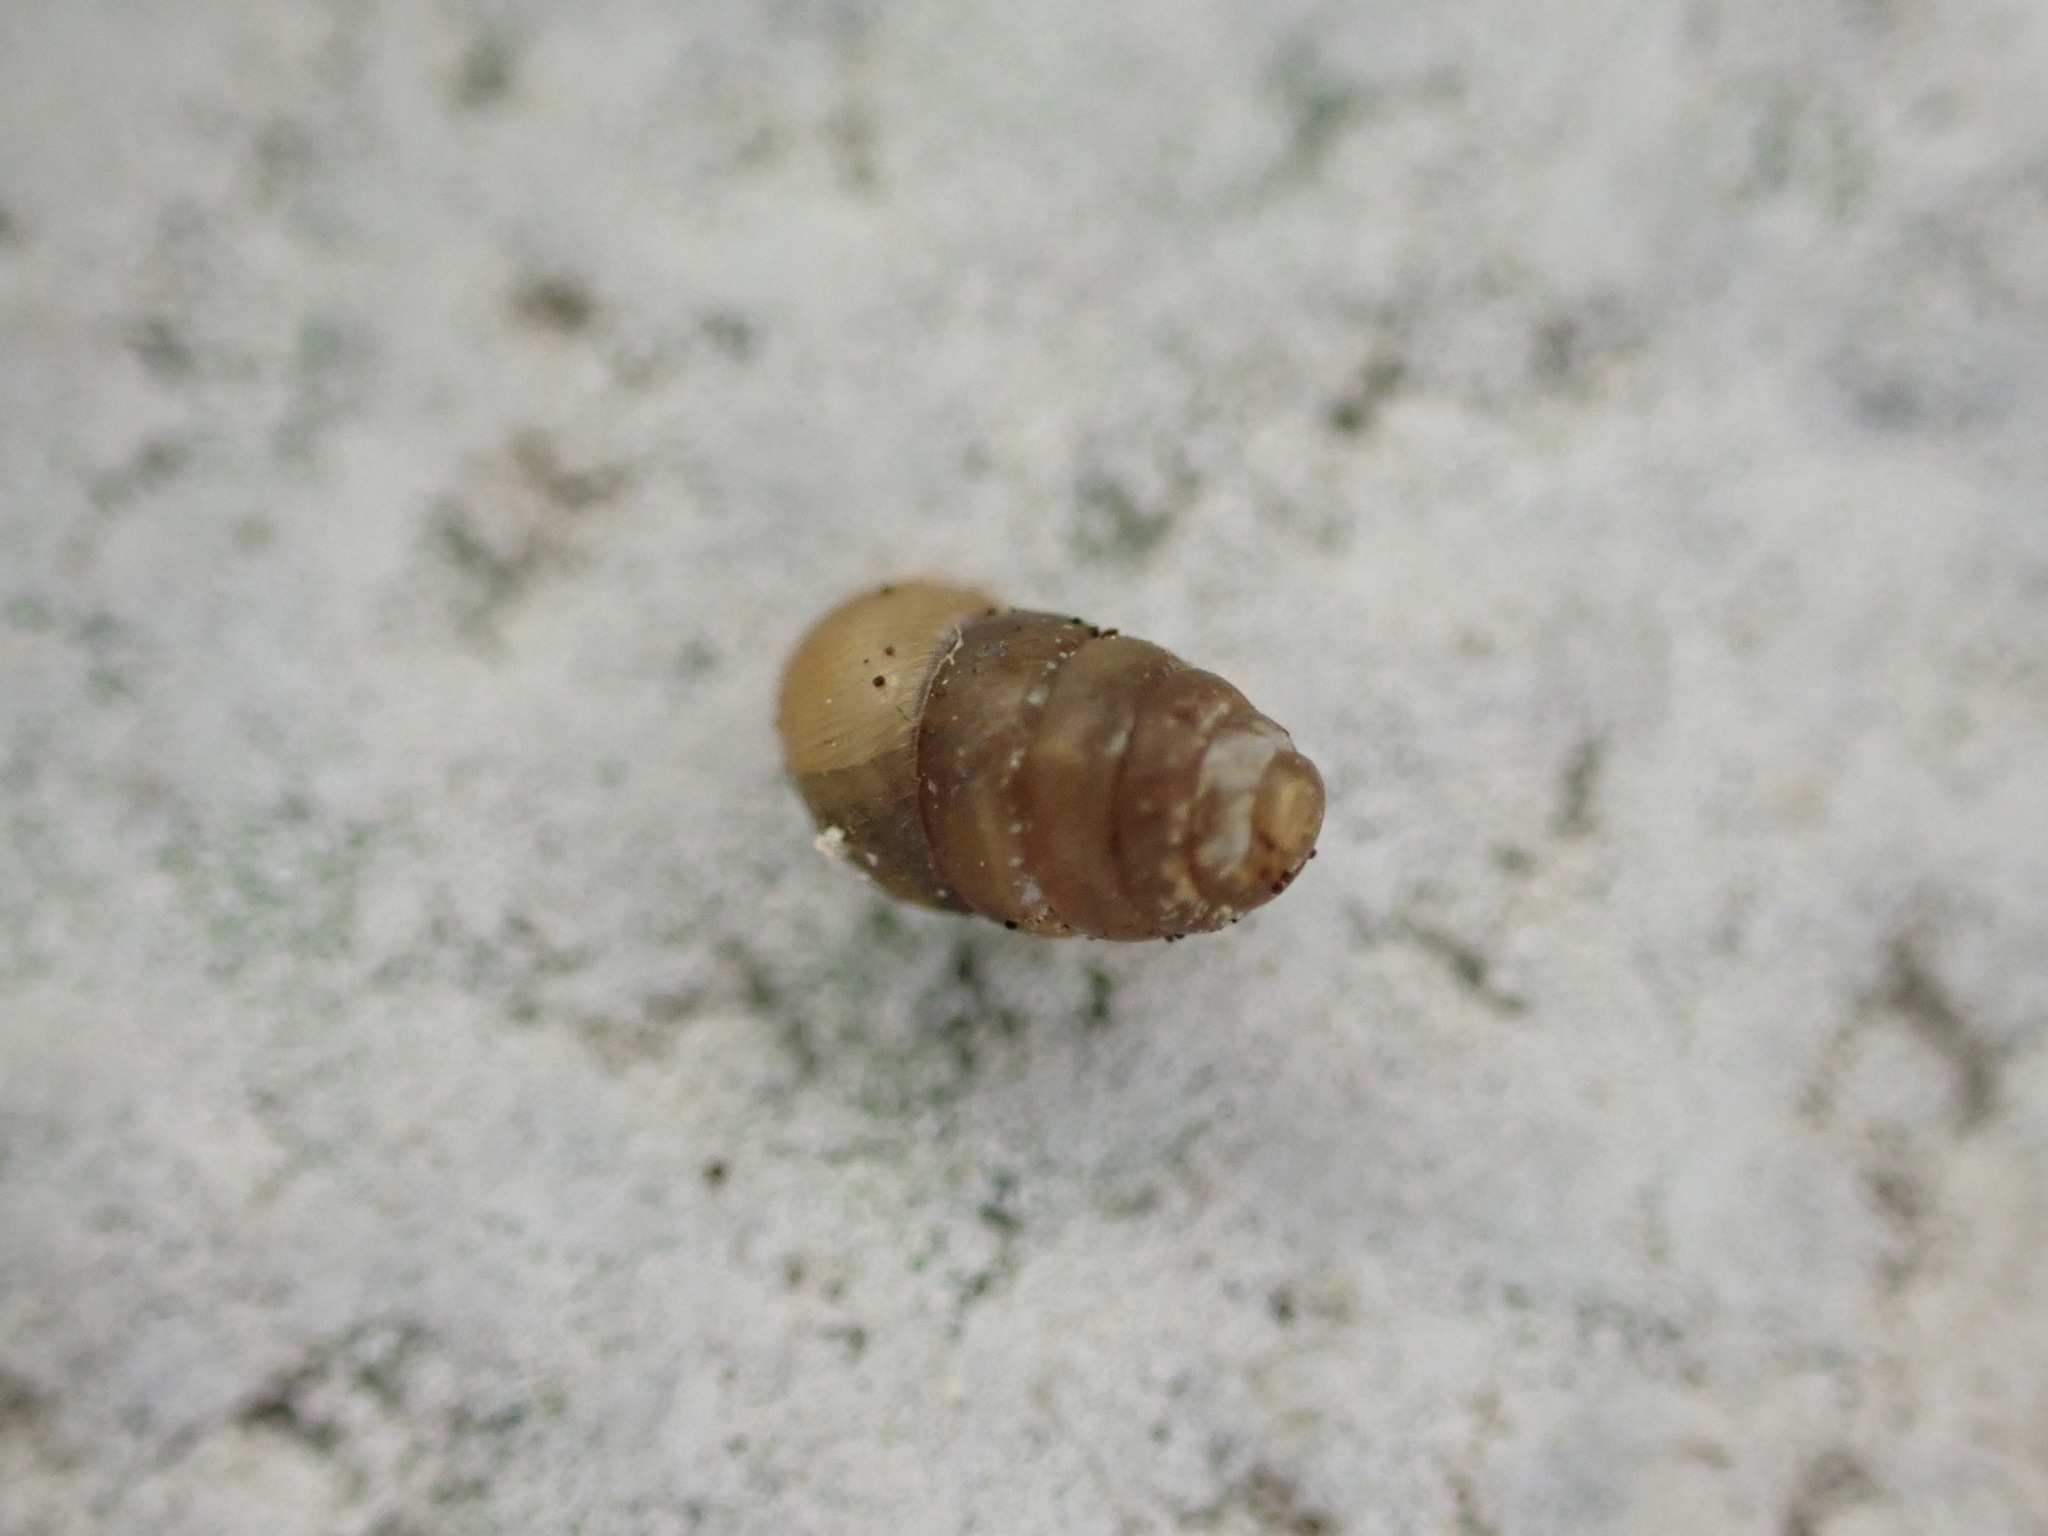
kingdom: Animalia
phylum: Mollusca
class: Gastropoda
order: Stylommatophora
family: Lauriidae
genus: Lauria
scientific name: Lauria cylindracea
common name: Common chrysalis snail
